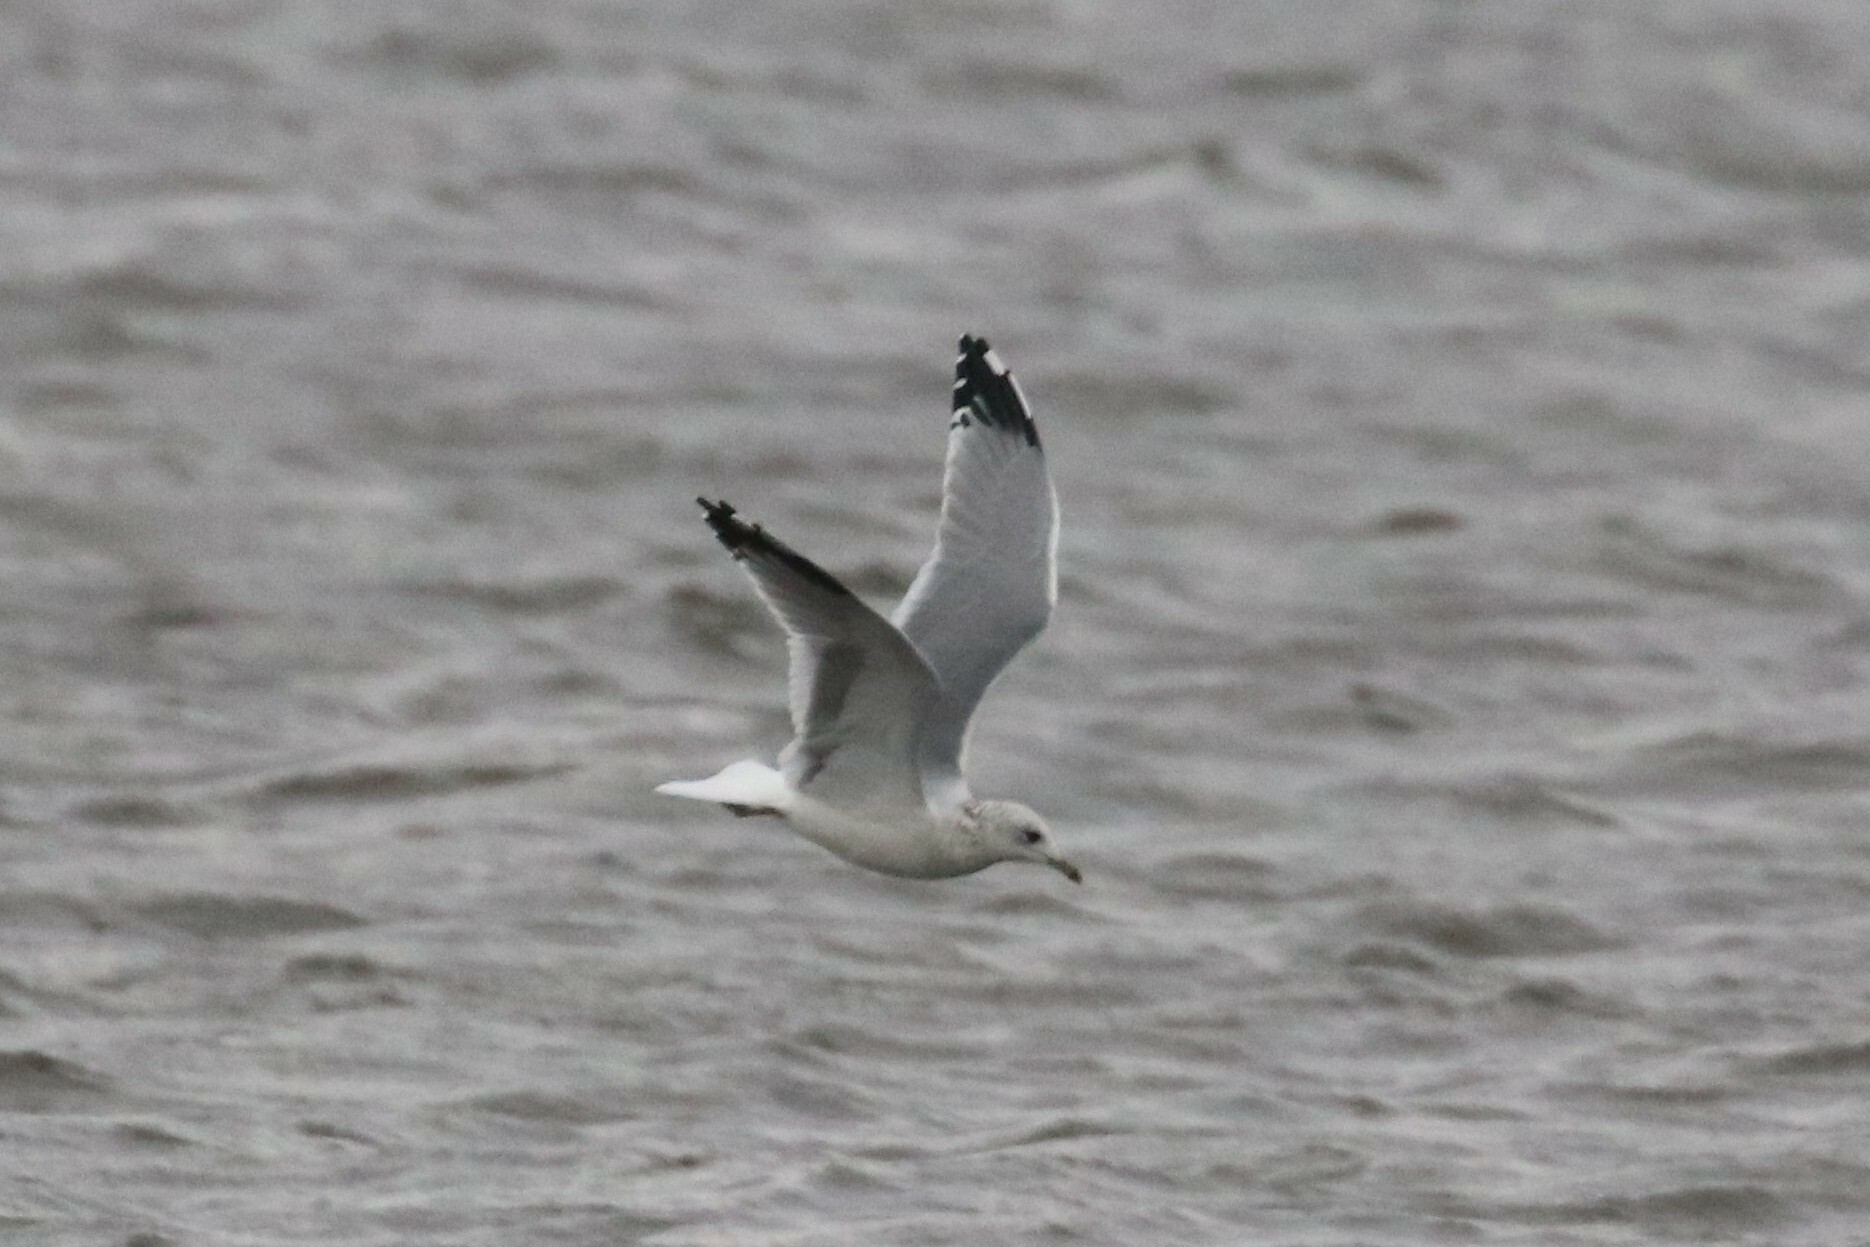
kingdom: Animalia
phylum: Chordata
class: Aves
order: Charadriiformes
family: Laridae
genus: Larus
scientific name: Larus canus
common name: Mew gull
